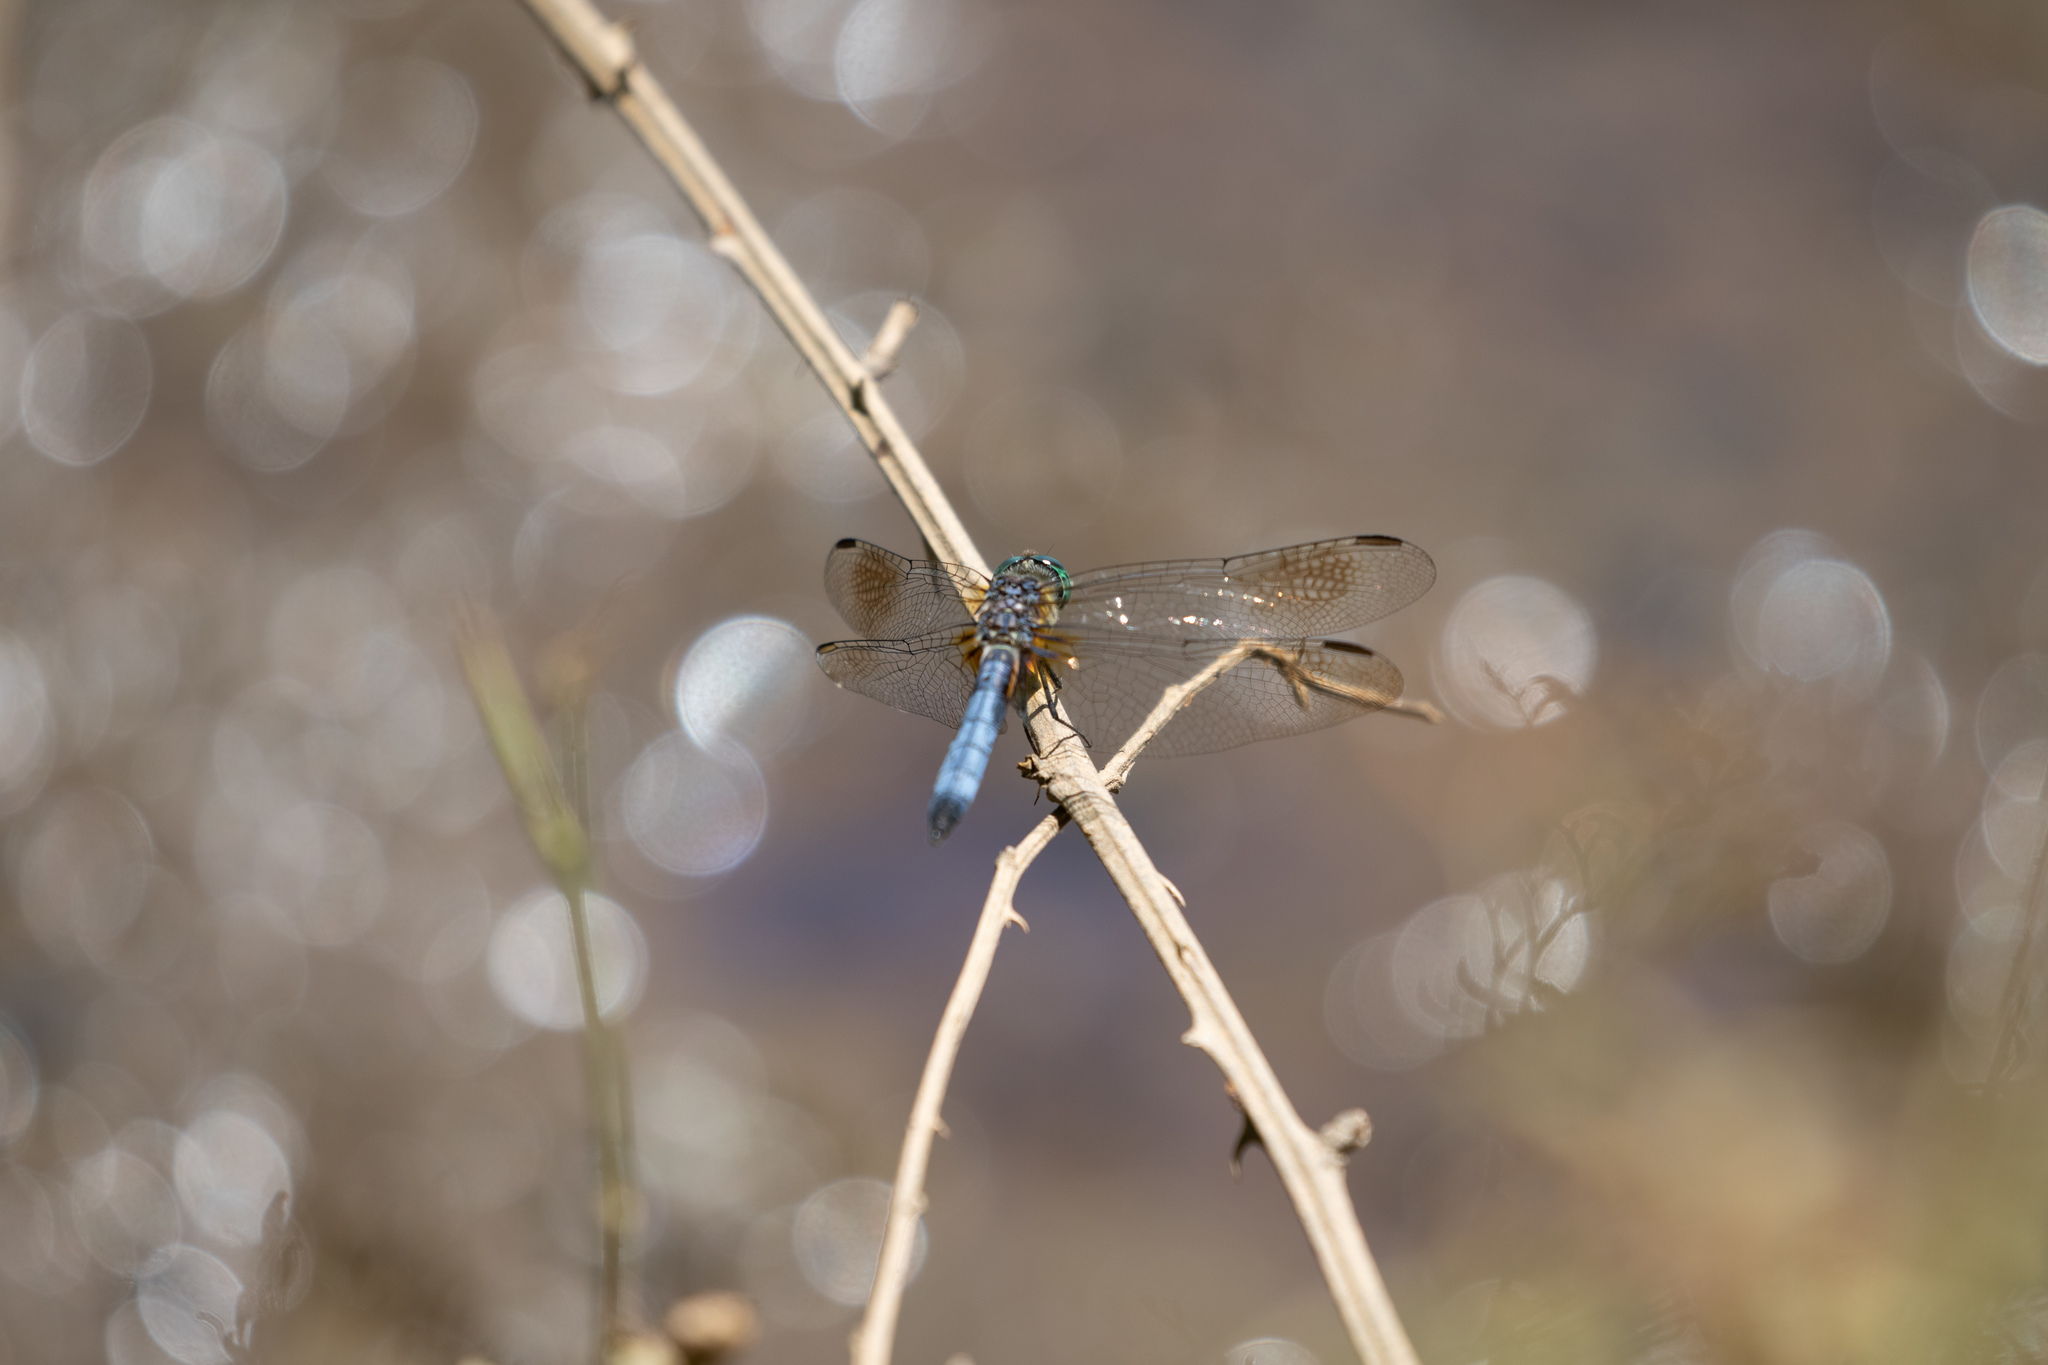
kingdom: Animalia
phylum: Arthropoda
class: Insecta
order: Odonata
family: Libellulidae
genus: Pachydiplax
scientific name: Pachydiplax longipennis
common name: Blue dasher
